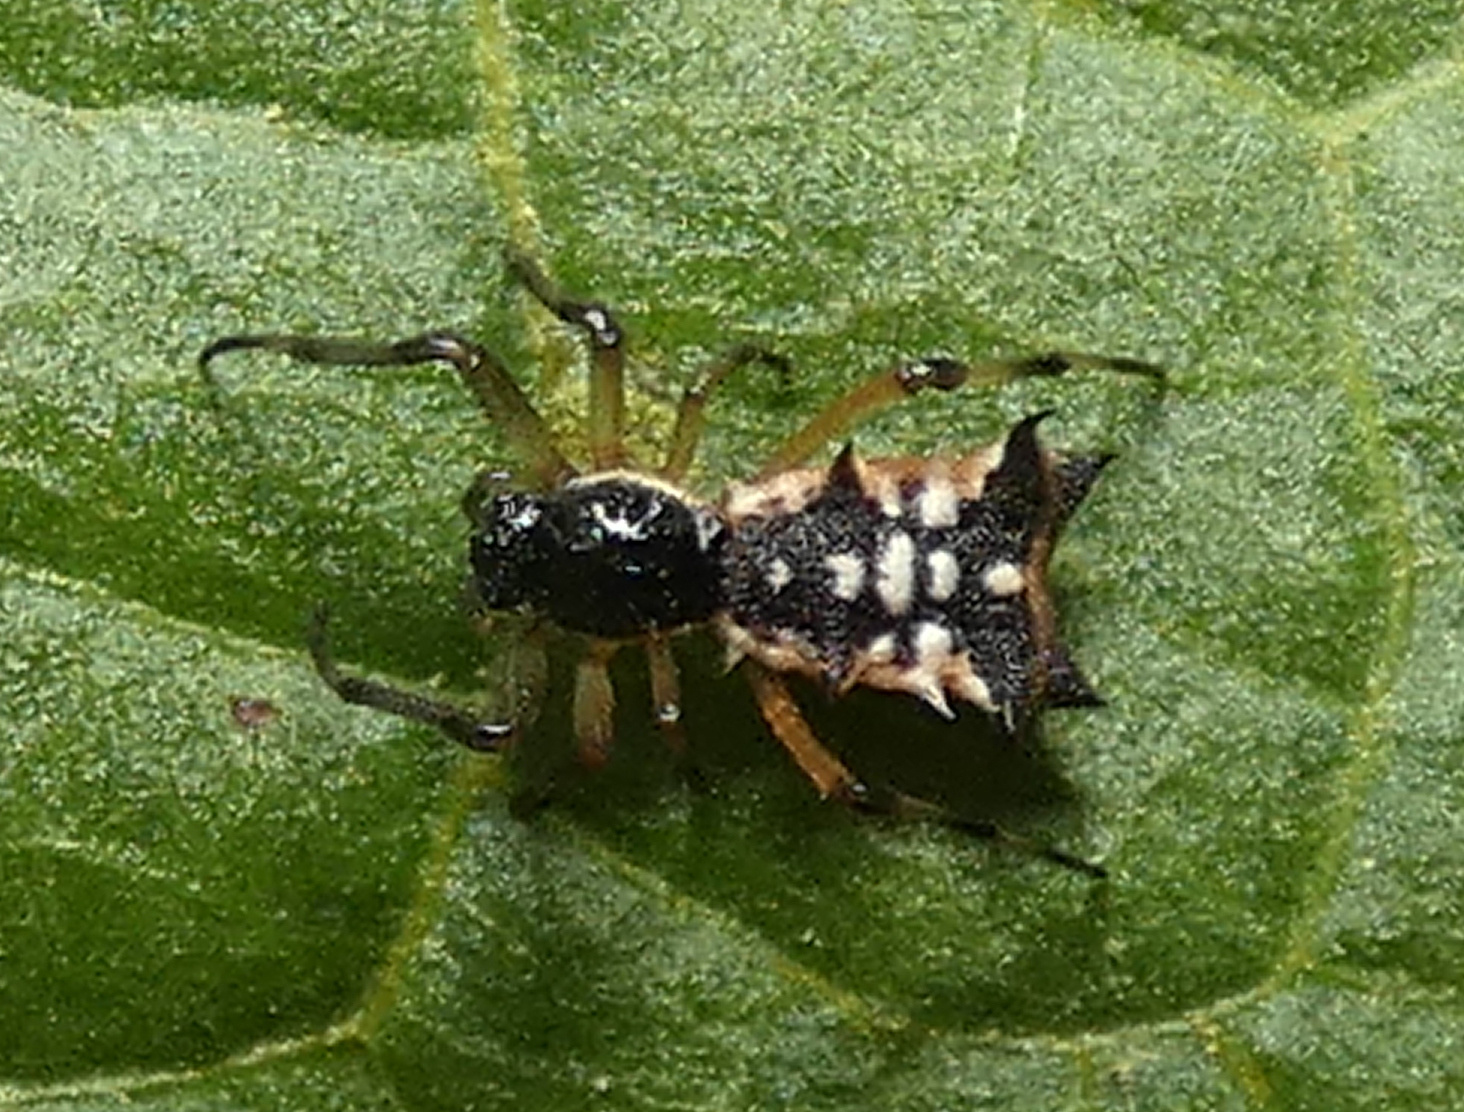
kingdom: Animalia
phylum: Arthropoda
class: Arachnida
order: Araneae
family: Araneidae
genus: Micrathena
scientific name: Micrathena picta
